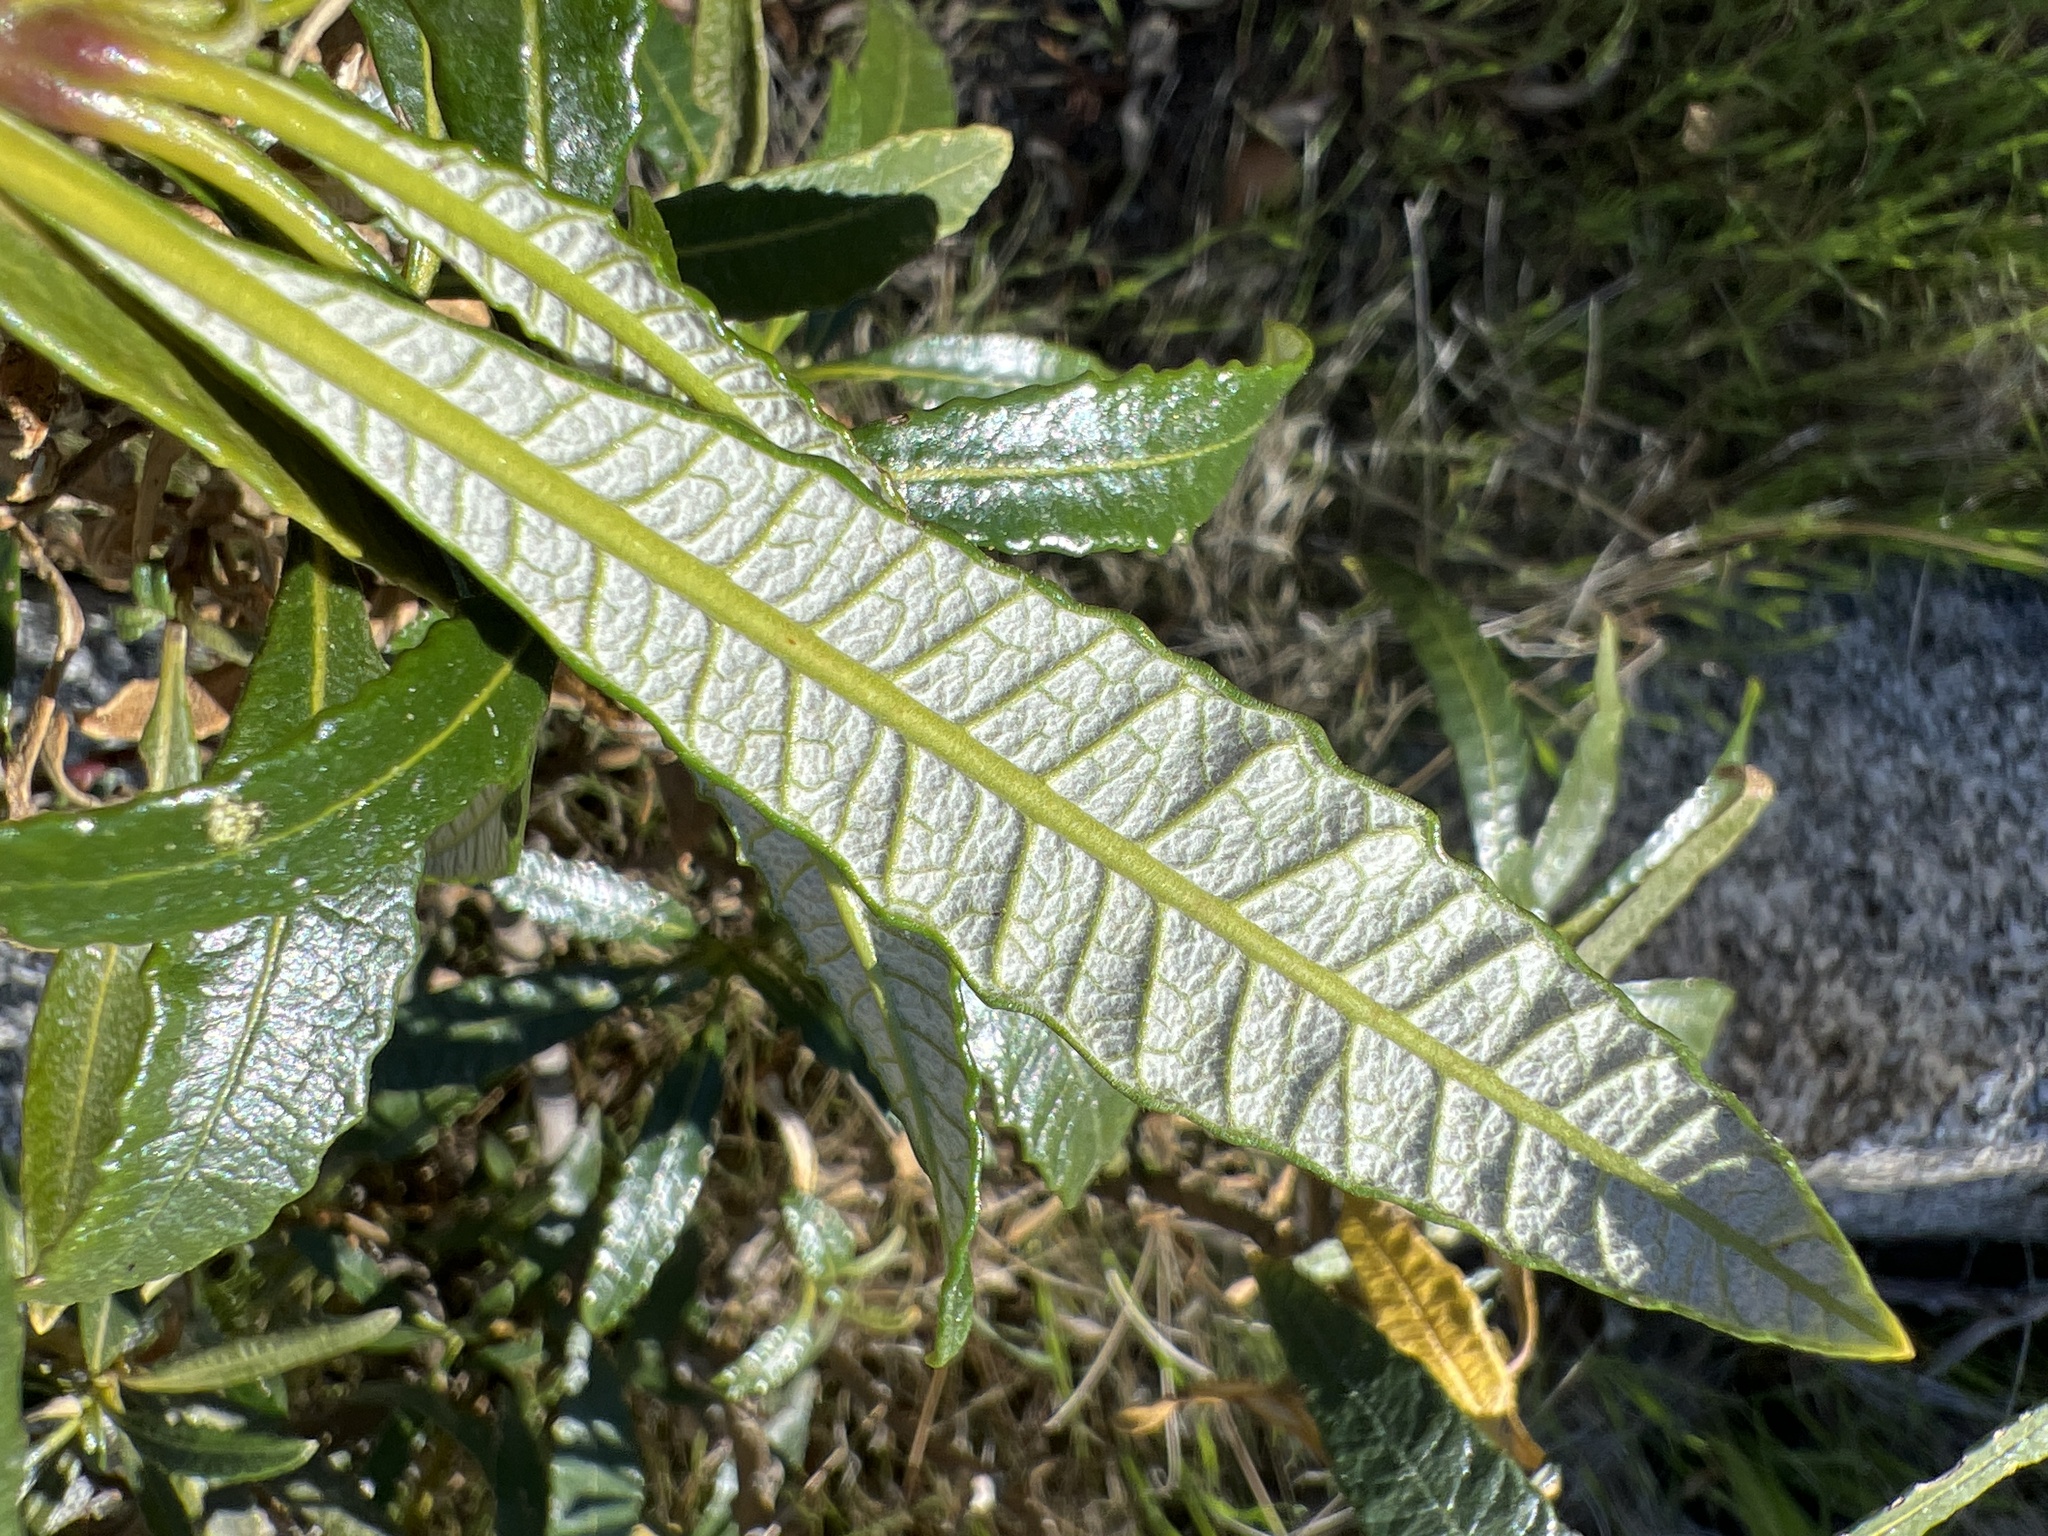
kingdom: Plantae
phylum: Tracheophyta
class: Magnoliopsida
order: Boraginales
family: Namaceae
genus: Eriodictyon
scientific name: Eriodictyon trichocalyx
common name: Hairy yerba-santa
